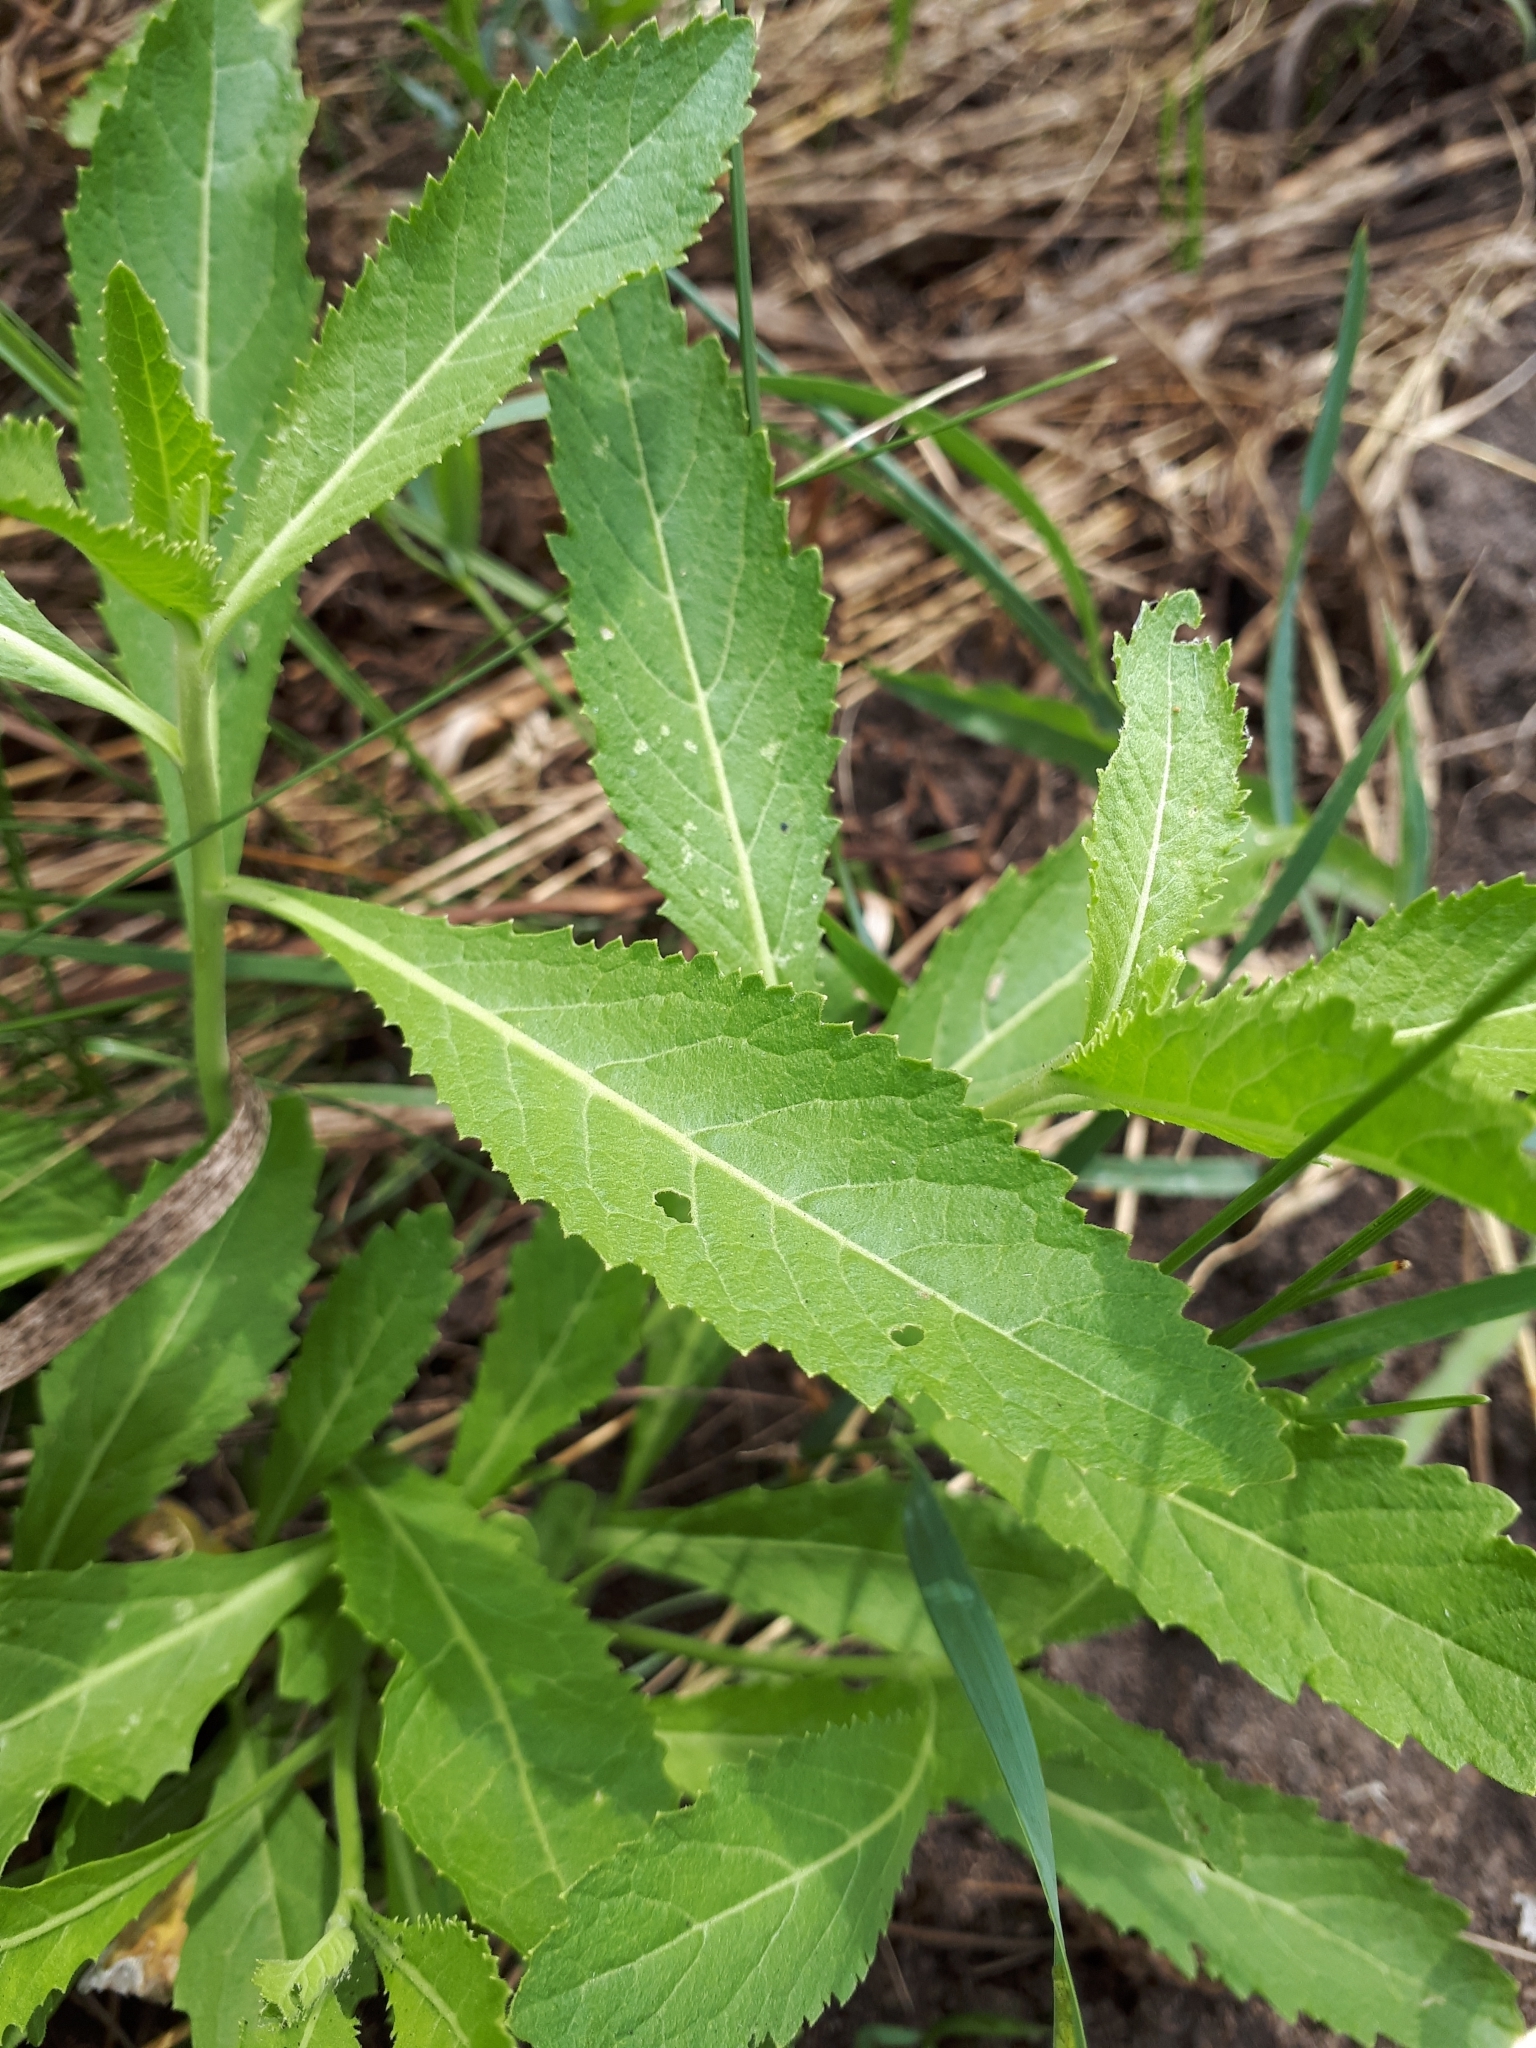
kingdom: Plantae
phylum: Tracheophyta
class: Magnoliopsida
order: Brassicales
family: Brassicaceae
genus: Rorippa
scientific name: Rorippa austriaca
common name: Austrian yellow-cress
